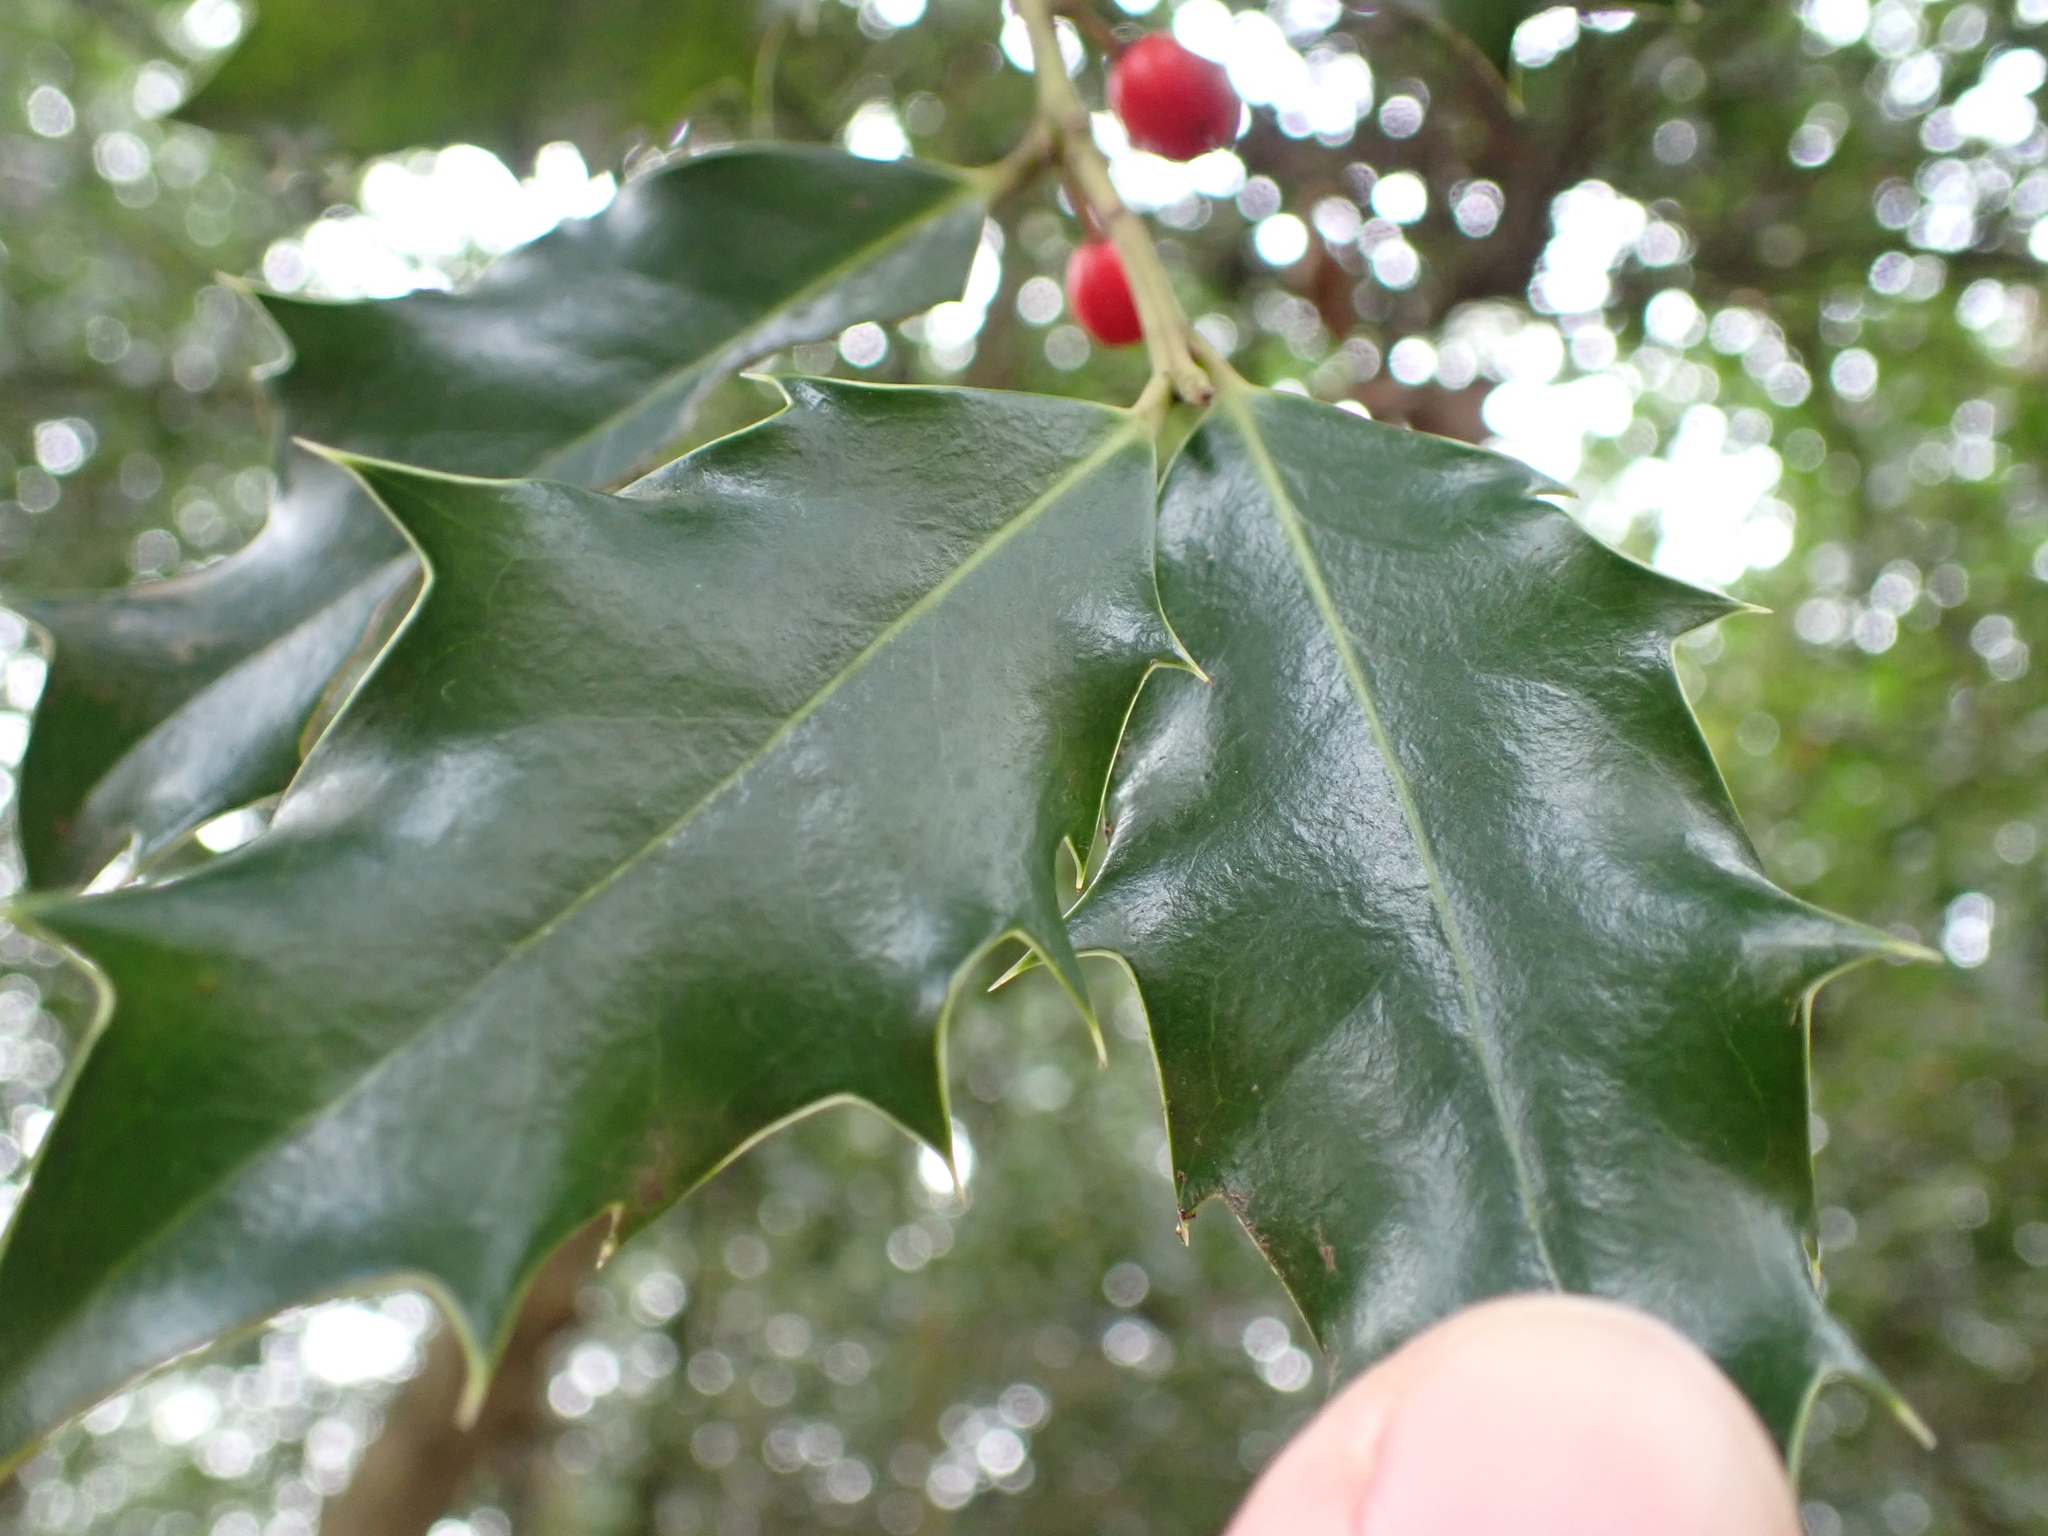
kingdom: Plantae
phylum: Tracheophyta
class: Magnoliopsida
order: Aquifoliales
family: Aquifoliaceae
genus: Ilex
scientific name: Ilex aquifolium
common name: English holly
